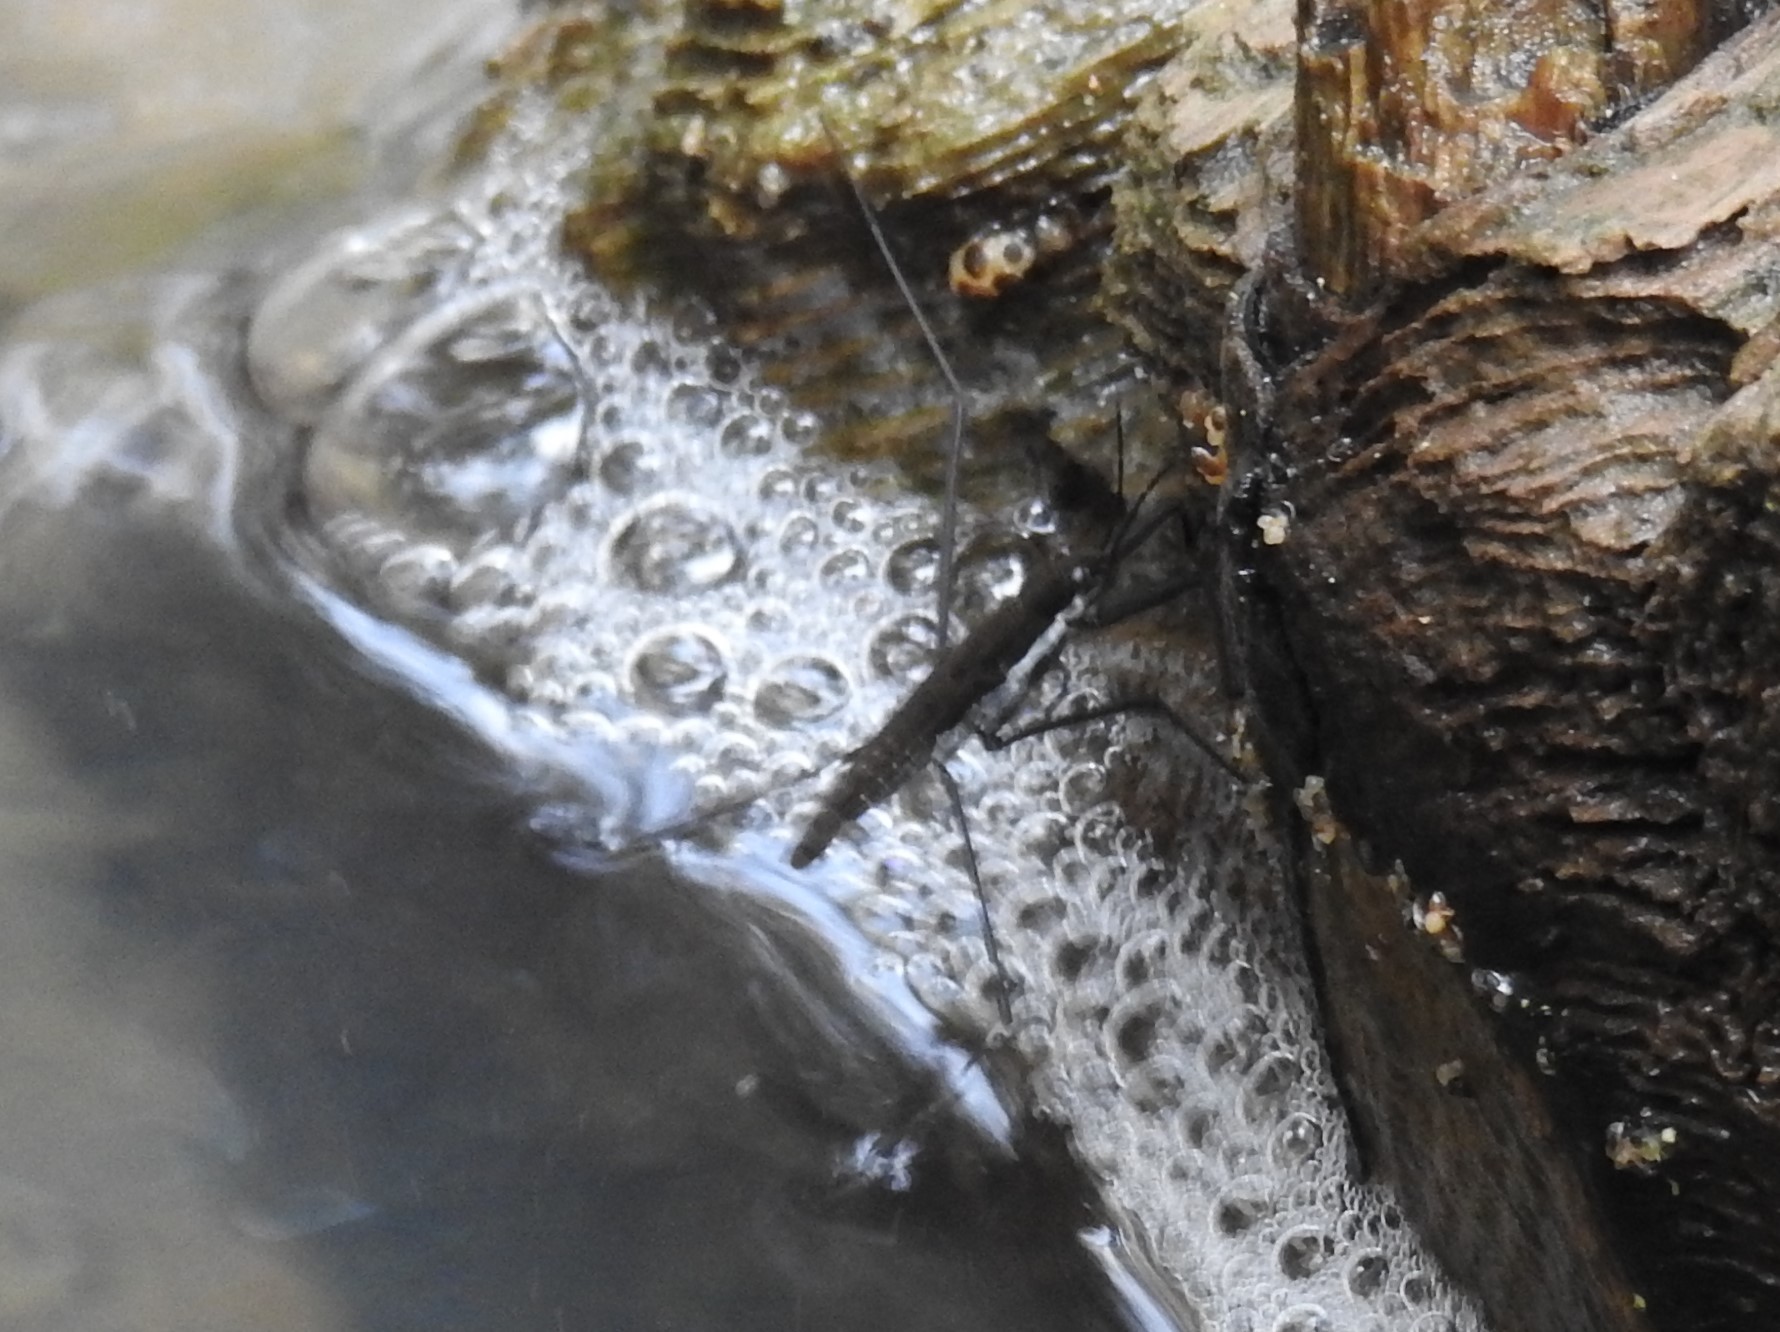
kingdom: Animalia
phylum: Arthropoda
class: Insecta
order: Hemiptera
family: Gerridae
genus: Aquarius
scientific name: Aquarius remigis
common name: Common water strider
